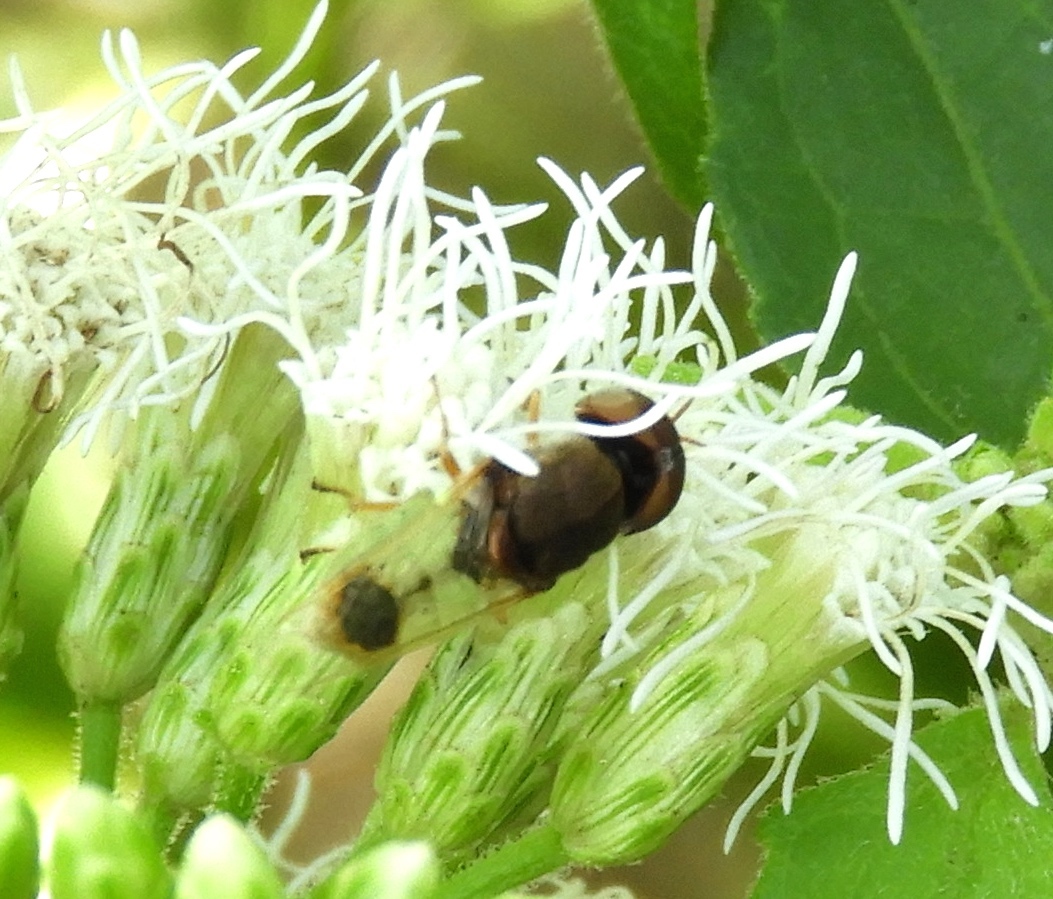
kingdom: Animalia
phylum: Arthropoda
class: Insecta
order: Diptera
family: Stratiomyidae
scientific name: Stratiomyidae
